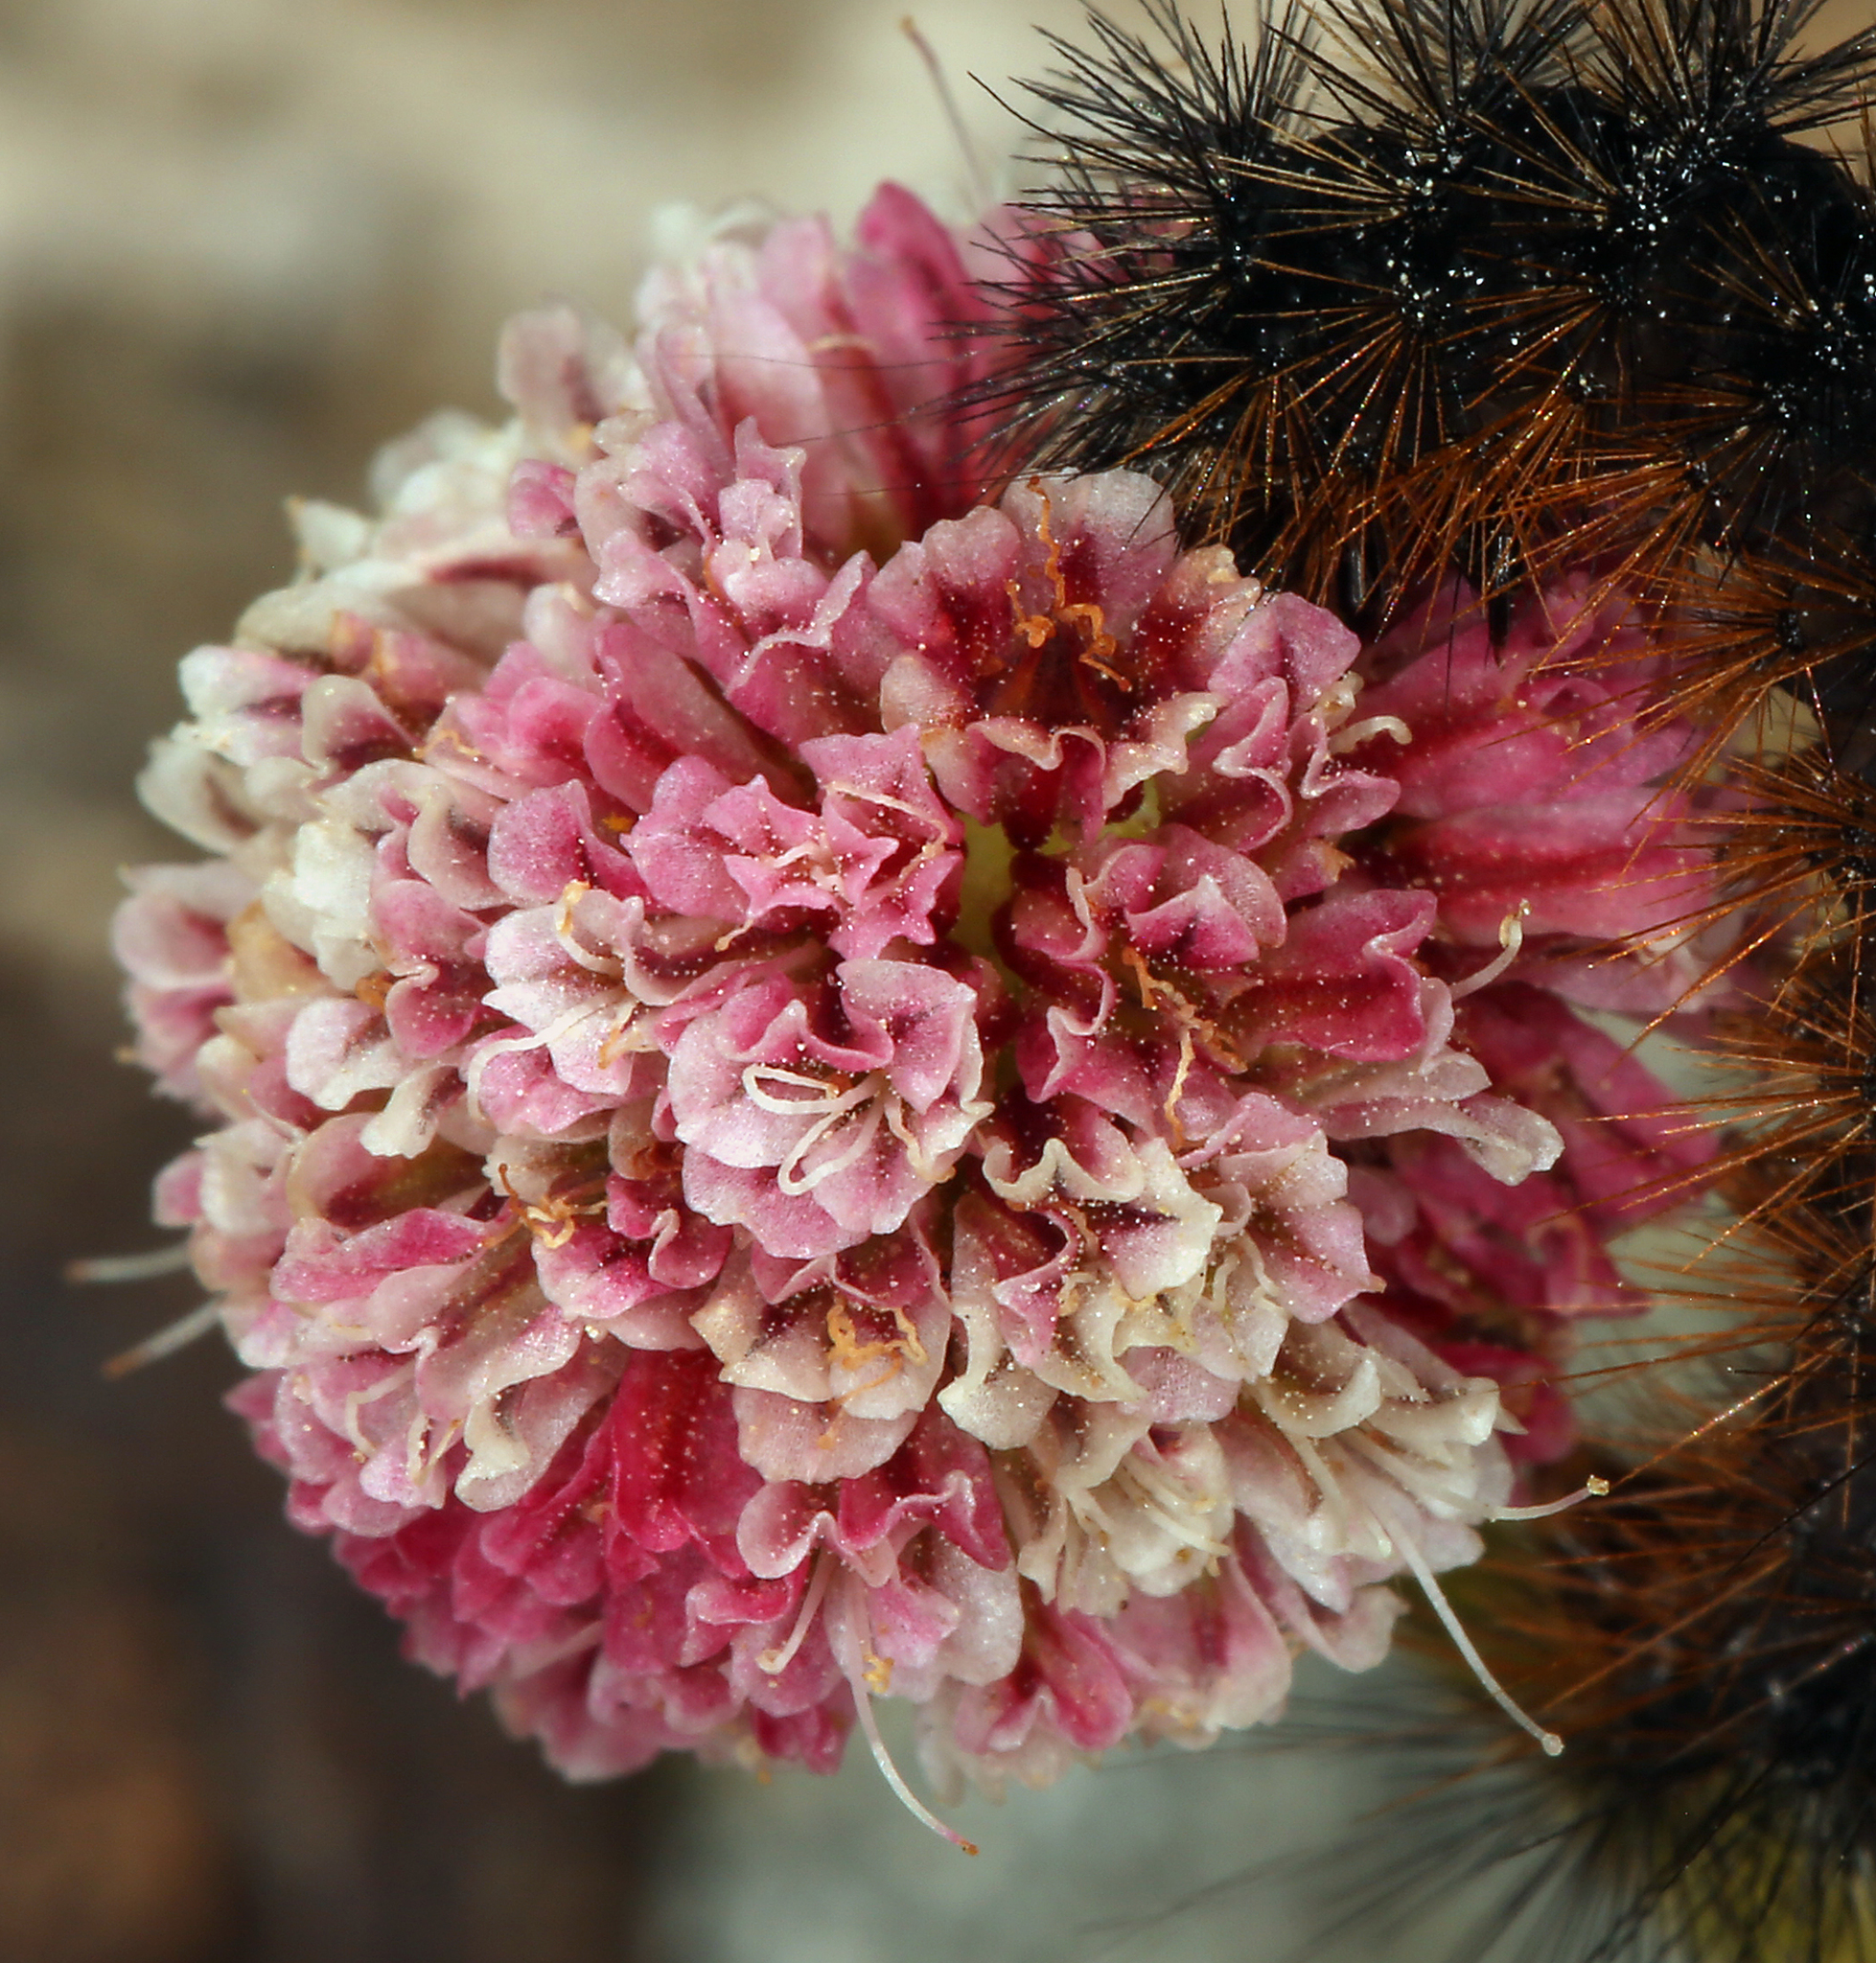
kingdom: Plantae
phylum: Tracheophyta
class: Magnoliopsida
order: Caryophyllales
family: Polygonaceae
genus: Eriogonum
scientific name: Eriogonum gracilipes
